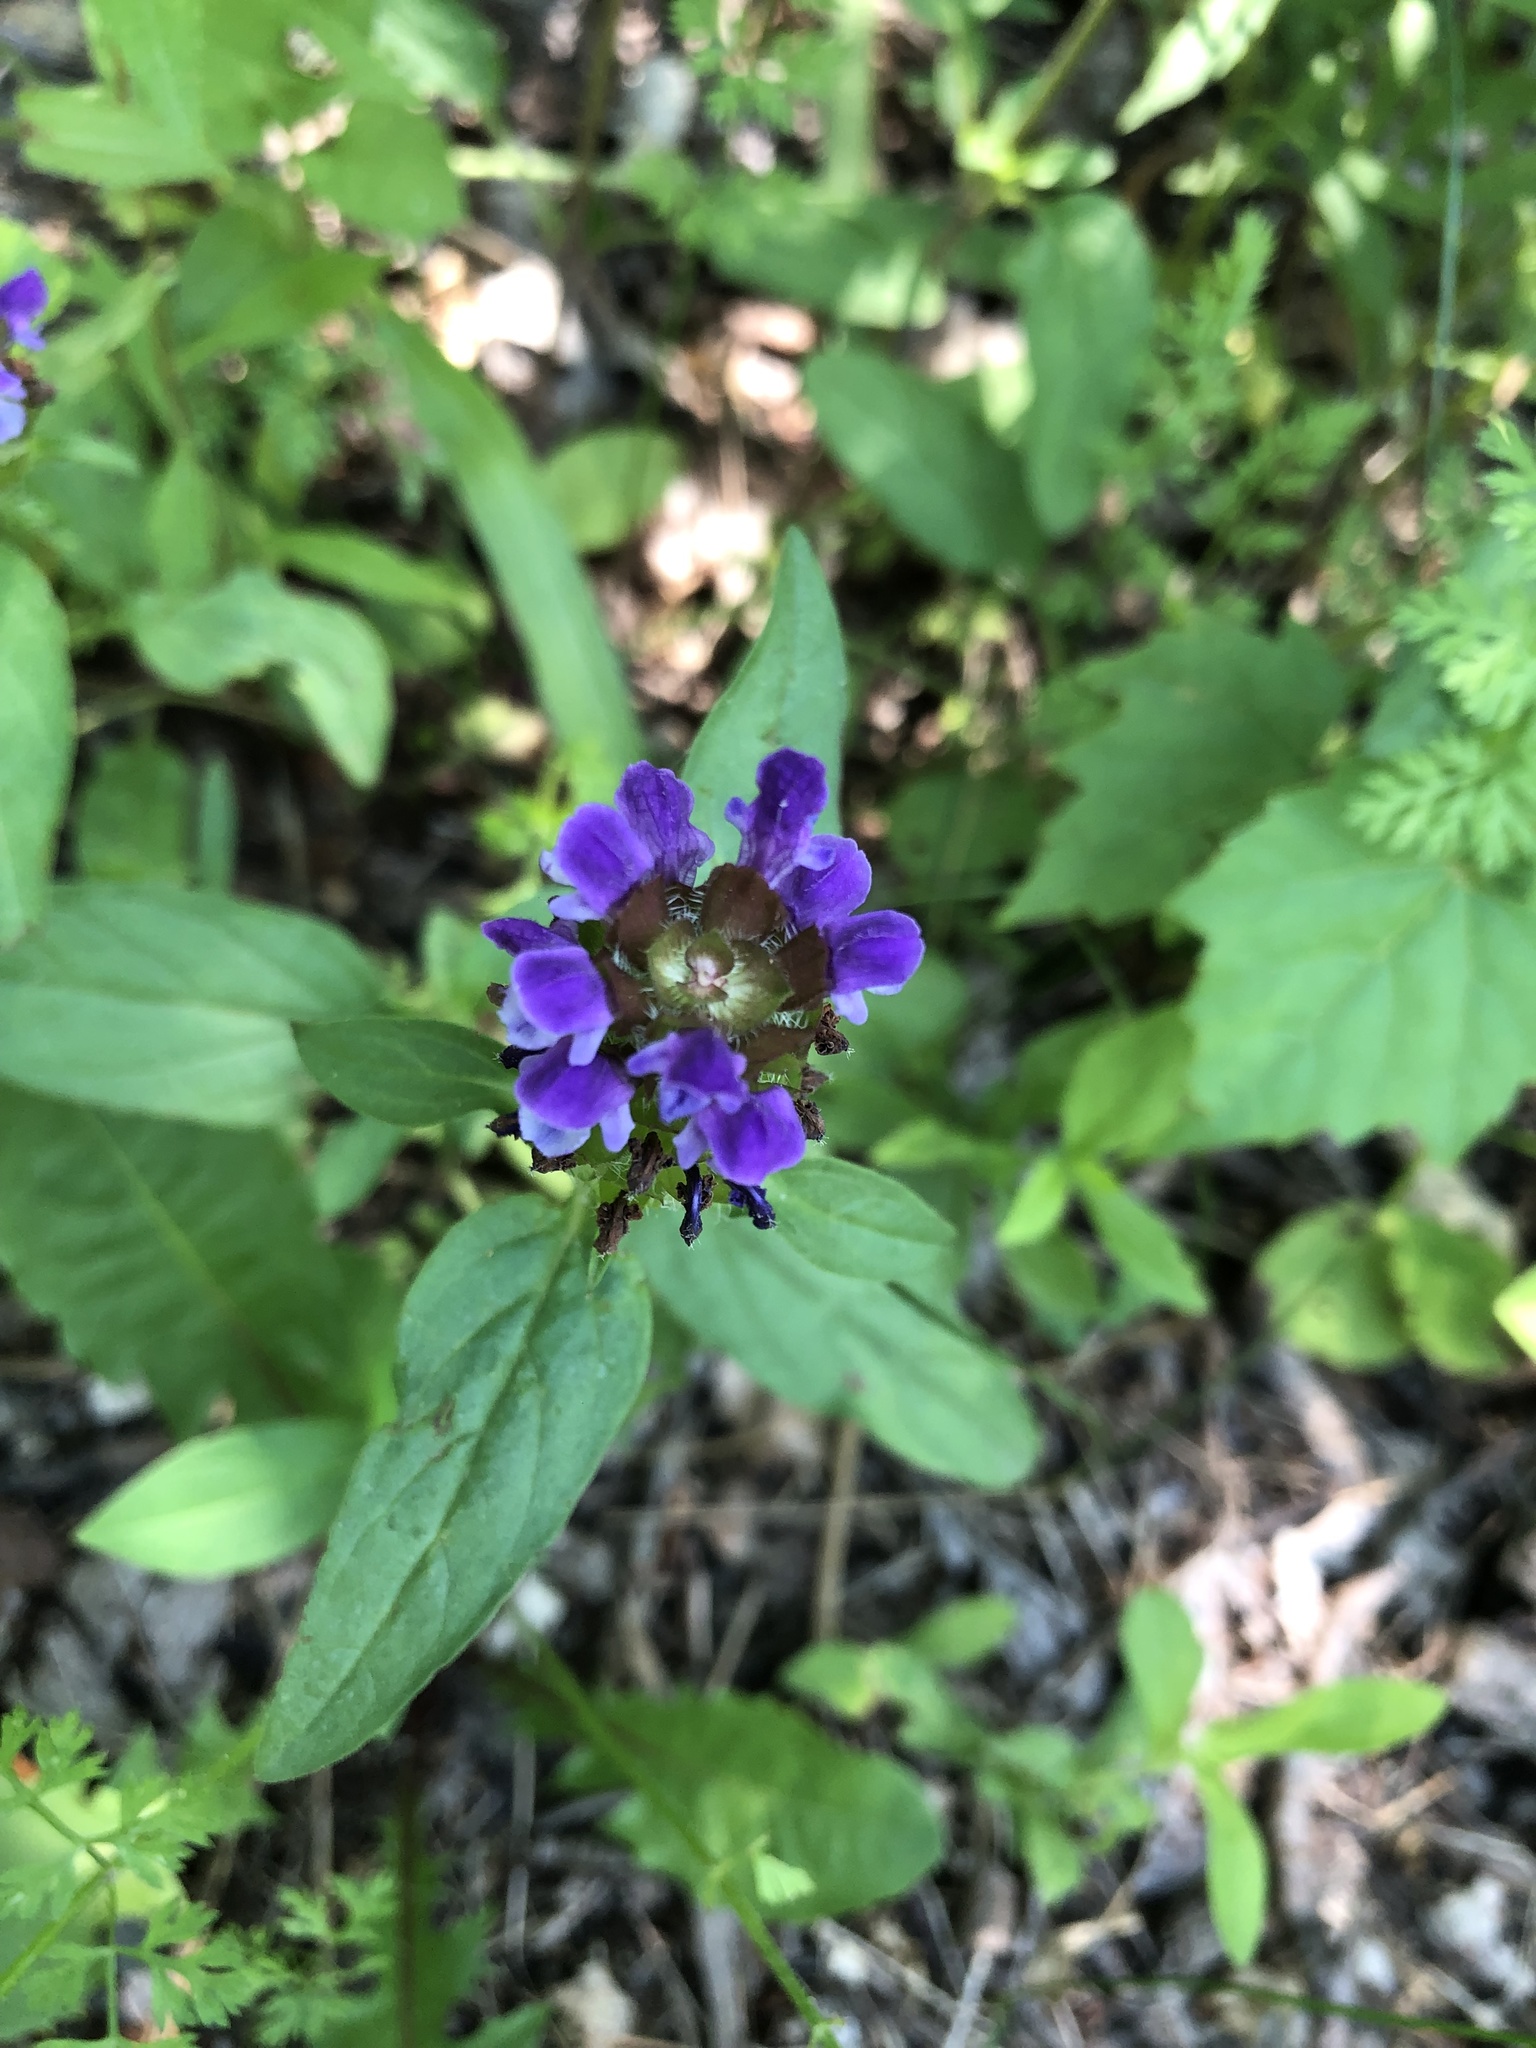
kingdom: Plantae
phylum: Tracheophyta
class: Magnoliopsida
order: Lamiales
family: Lamiaceae
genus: Prunella
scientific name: Prunella vulgaris
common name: Heal-all
